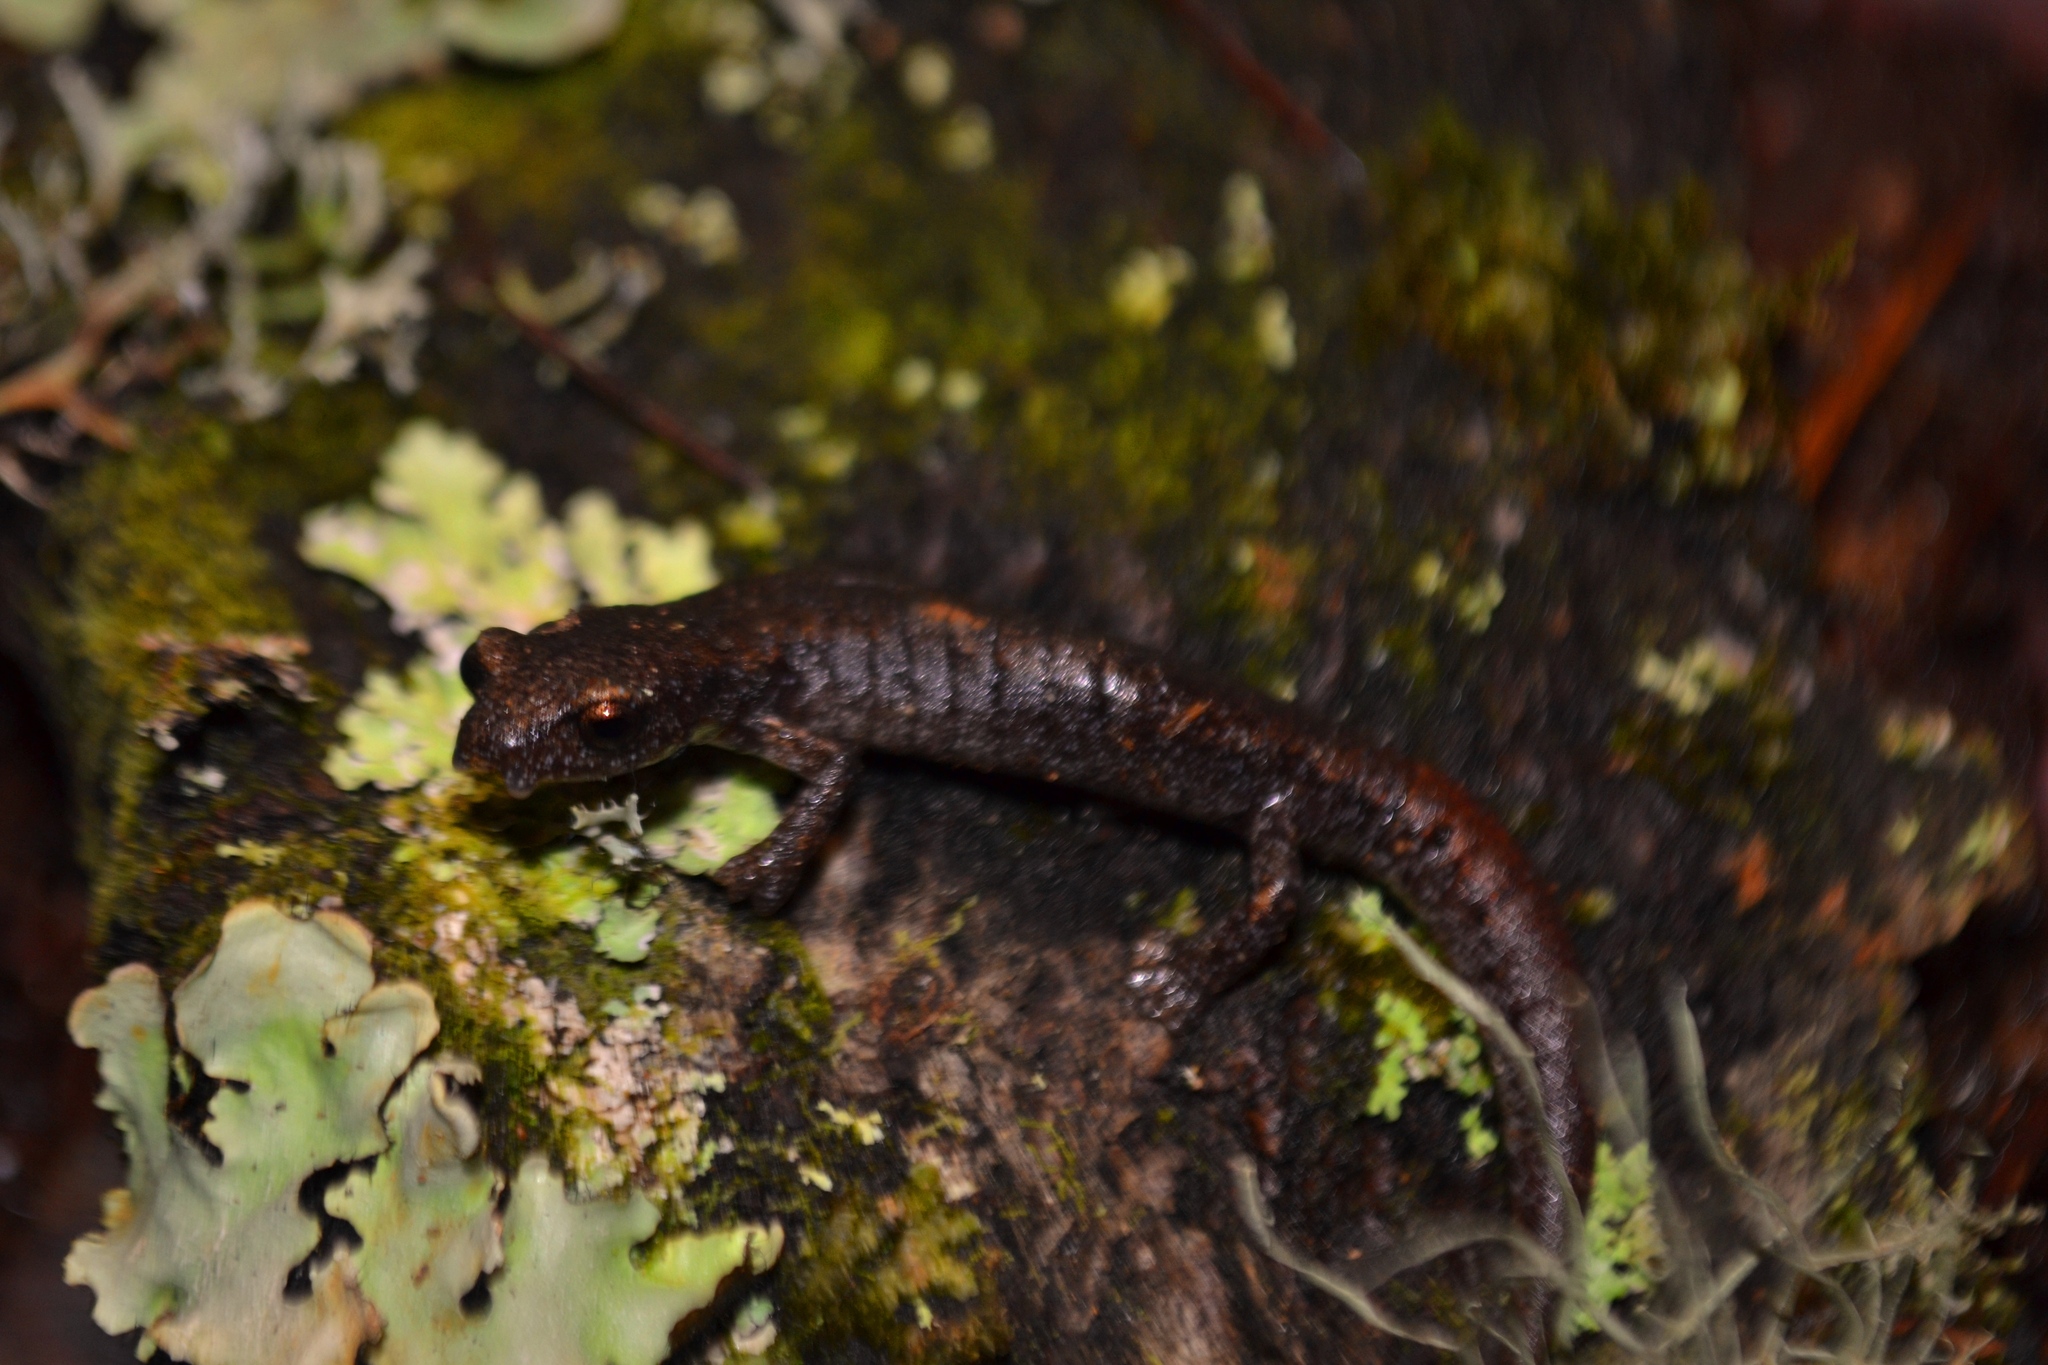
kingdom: Animalia
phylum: Chordata
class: Amphibia
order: Caudata
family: Plethodontidae
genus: Bolitoglossa
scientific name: Bolitoglossa hartwegi
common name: Hartweg's mushroomtongue salamander
